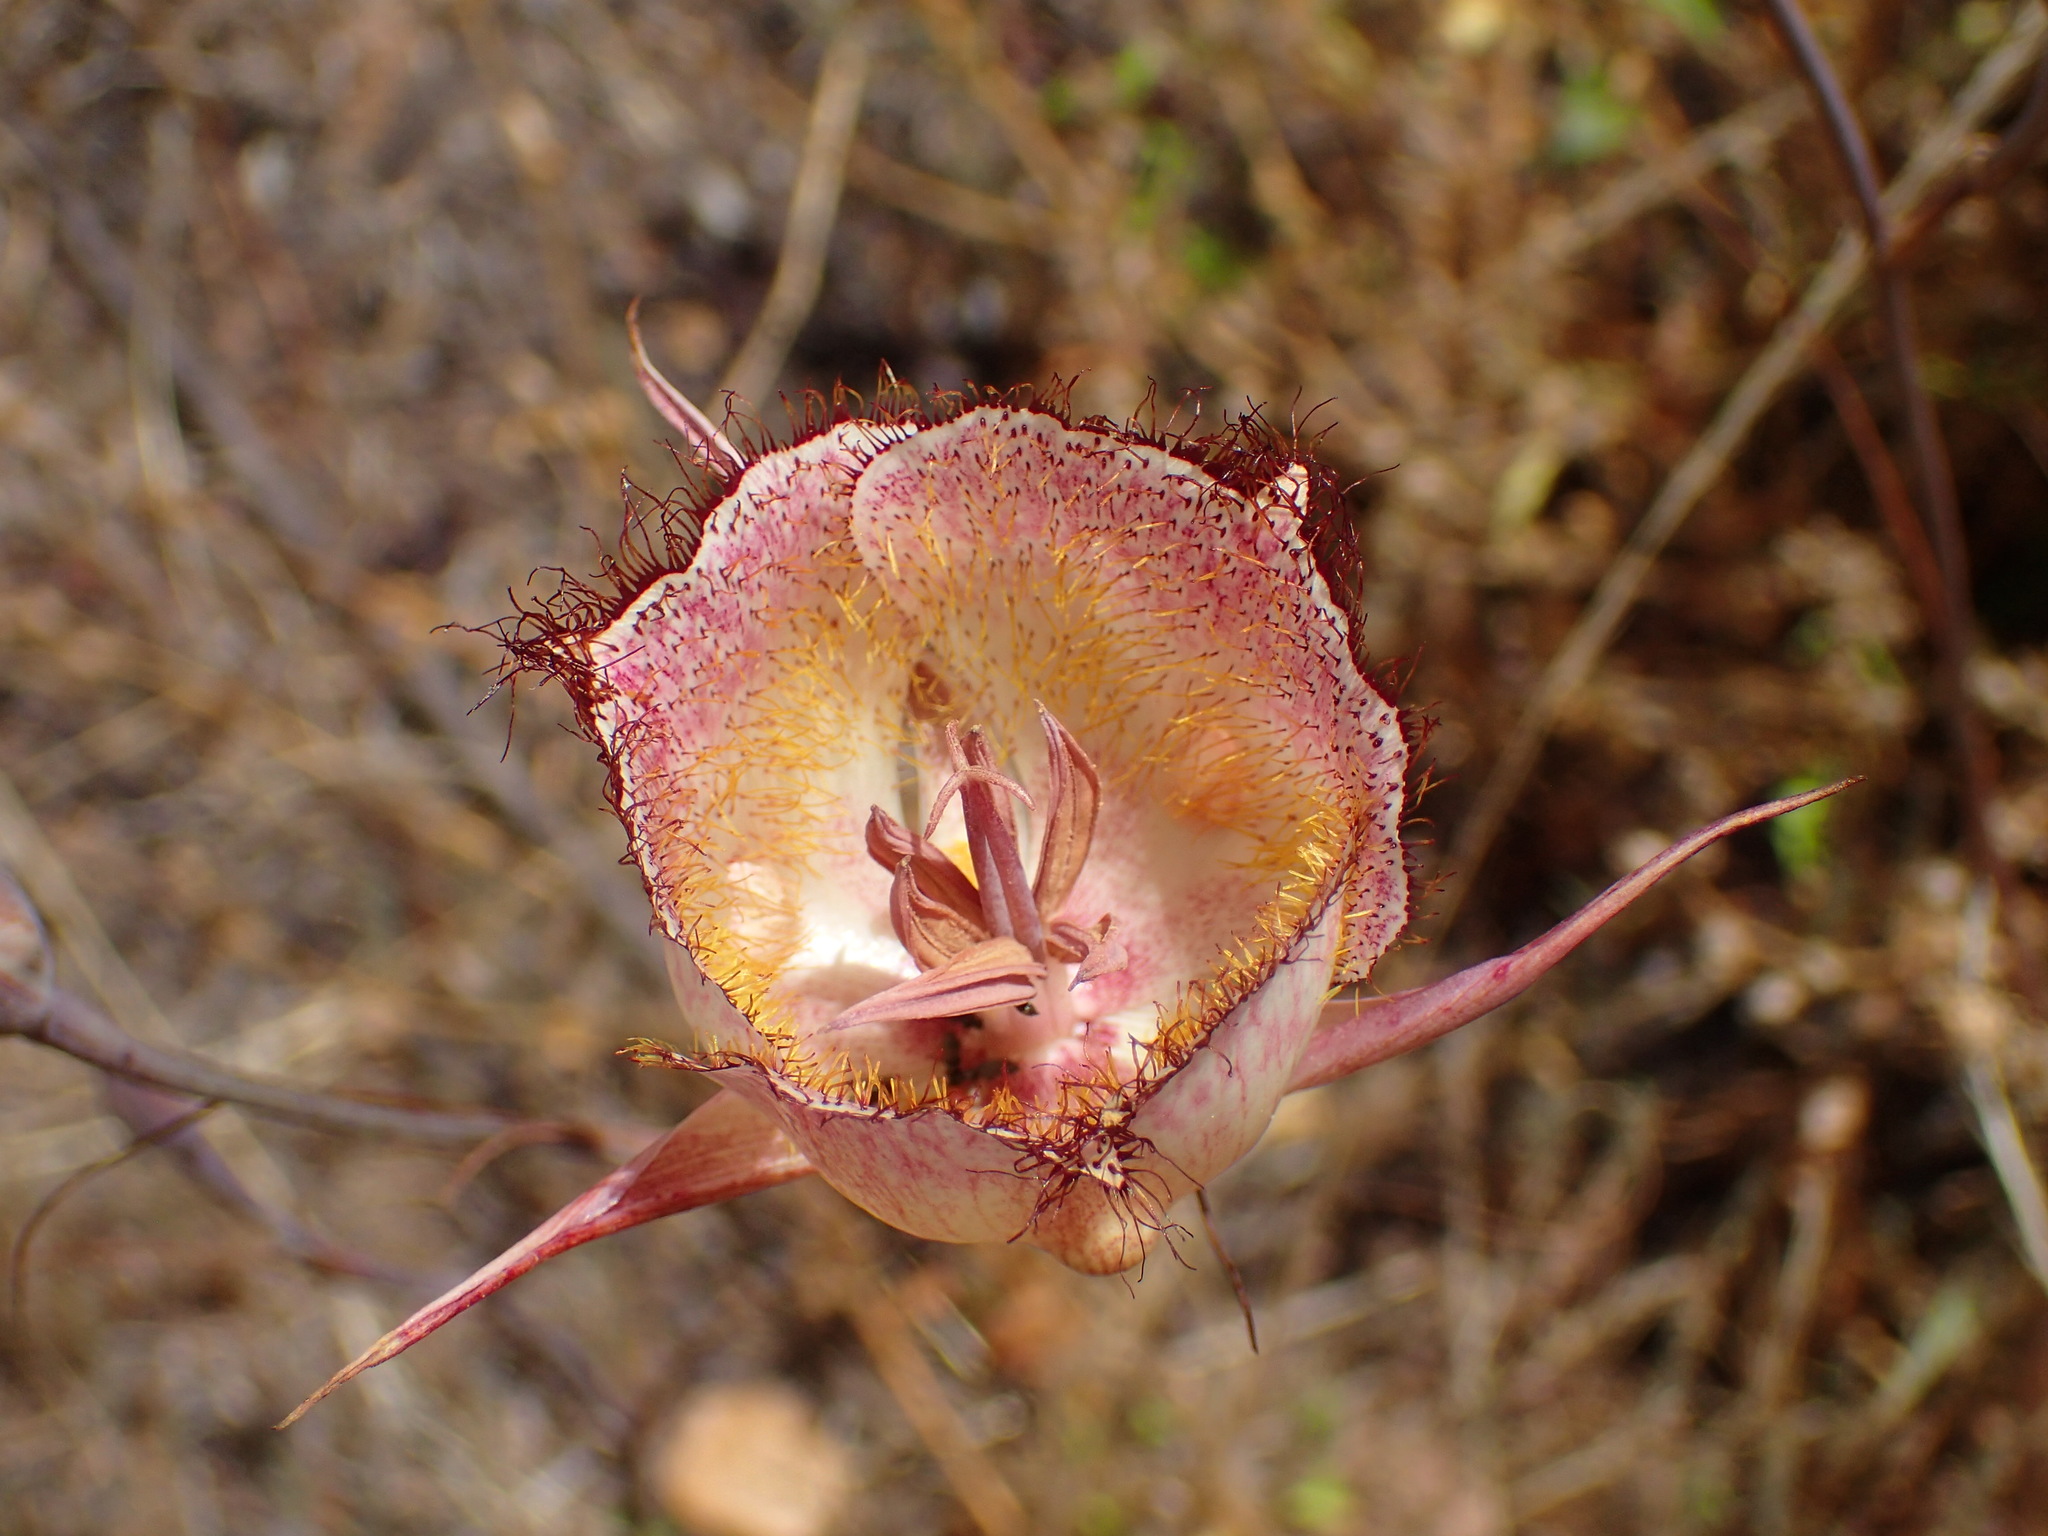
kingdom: Plantae
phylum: Tracheophyta
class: Liliopsida
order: Liliales
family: Liliaceae
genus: Calochortus
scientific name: Calochortus fimbriatus
